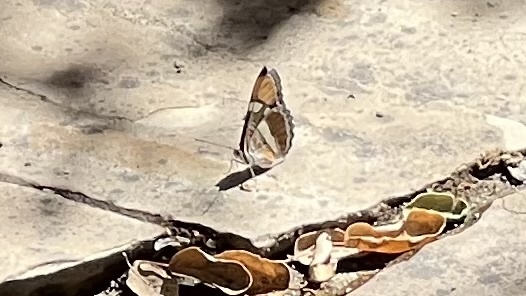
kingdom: Animalia
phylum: Arthropoda
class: Insecta
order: Lepidoptera
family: Nymphalidae
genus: Limenitis
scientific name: Limenitis bredowii
